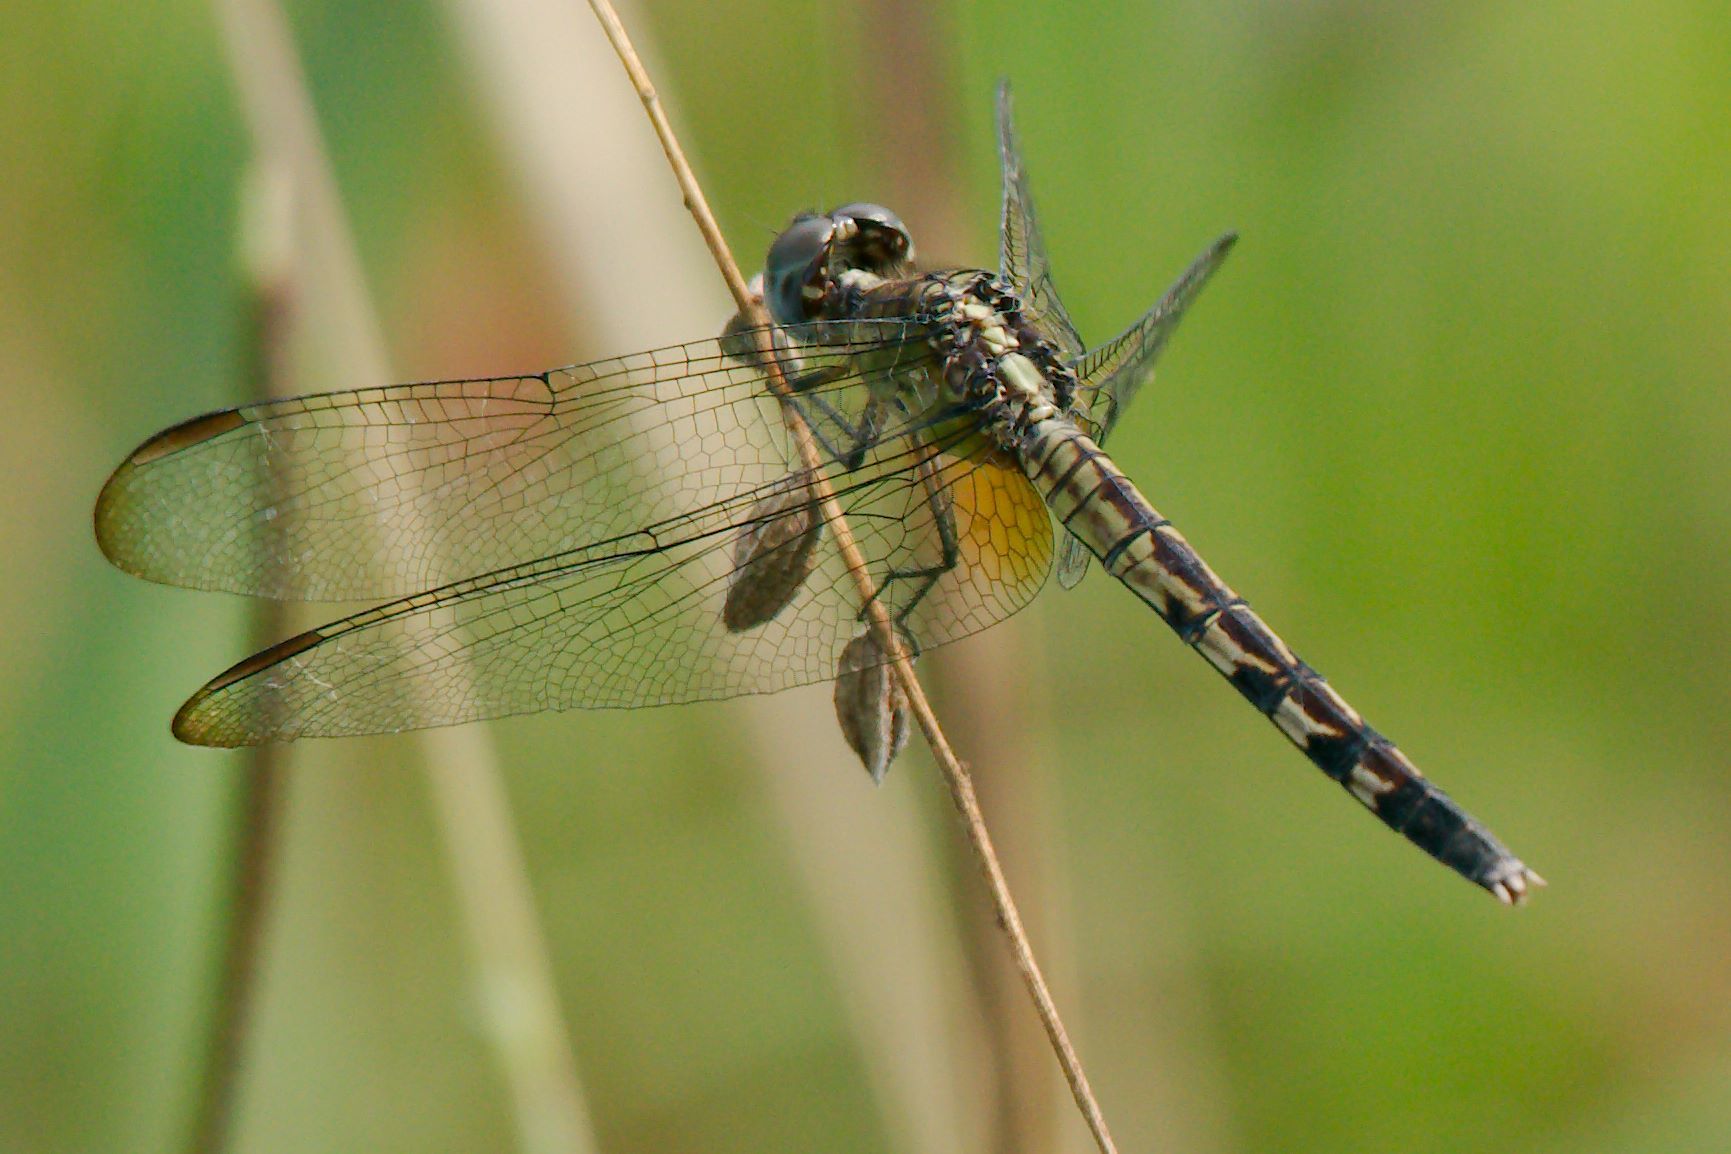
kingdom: Animalia
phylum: Arthropoda
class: Insecta
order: Odonata
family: Libellulidae
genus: Erythrodiplax
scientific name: Erythrodiplax umbrata
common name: Band-winged dragonlet
